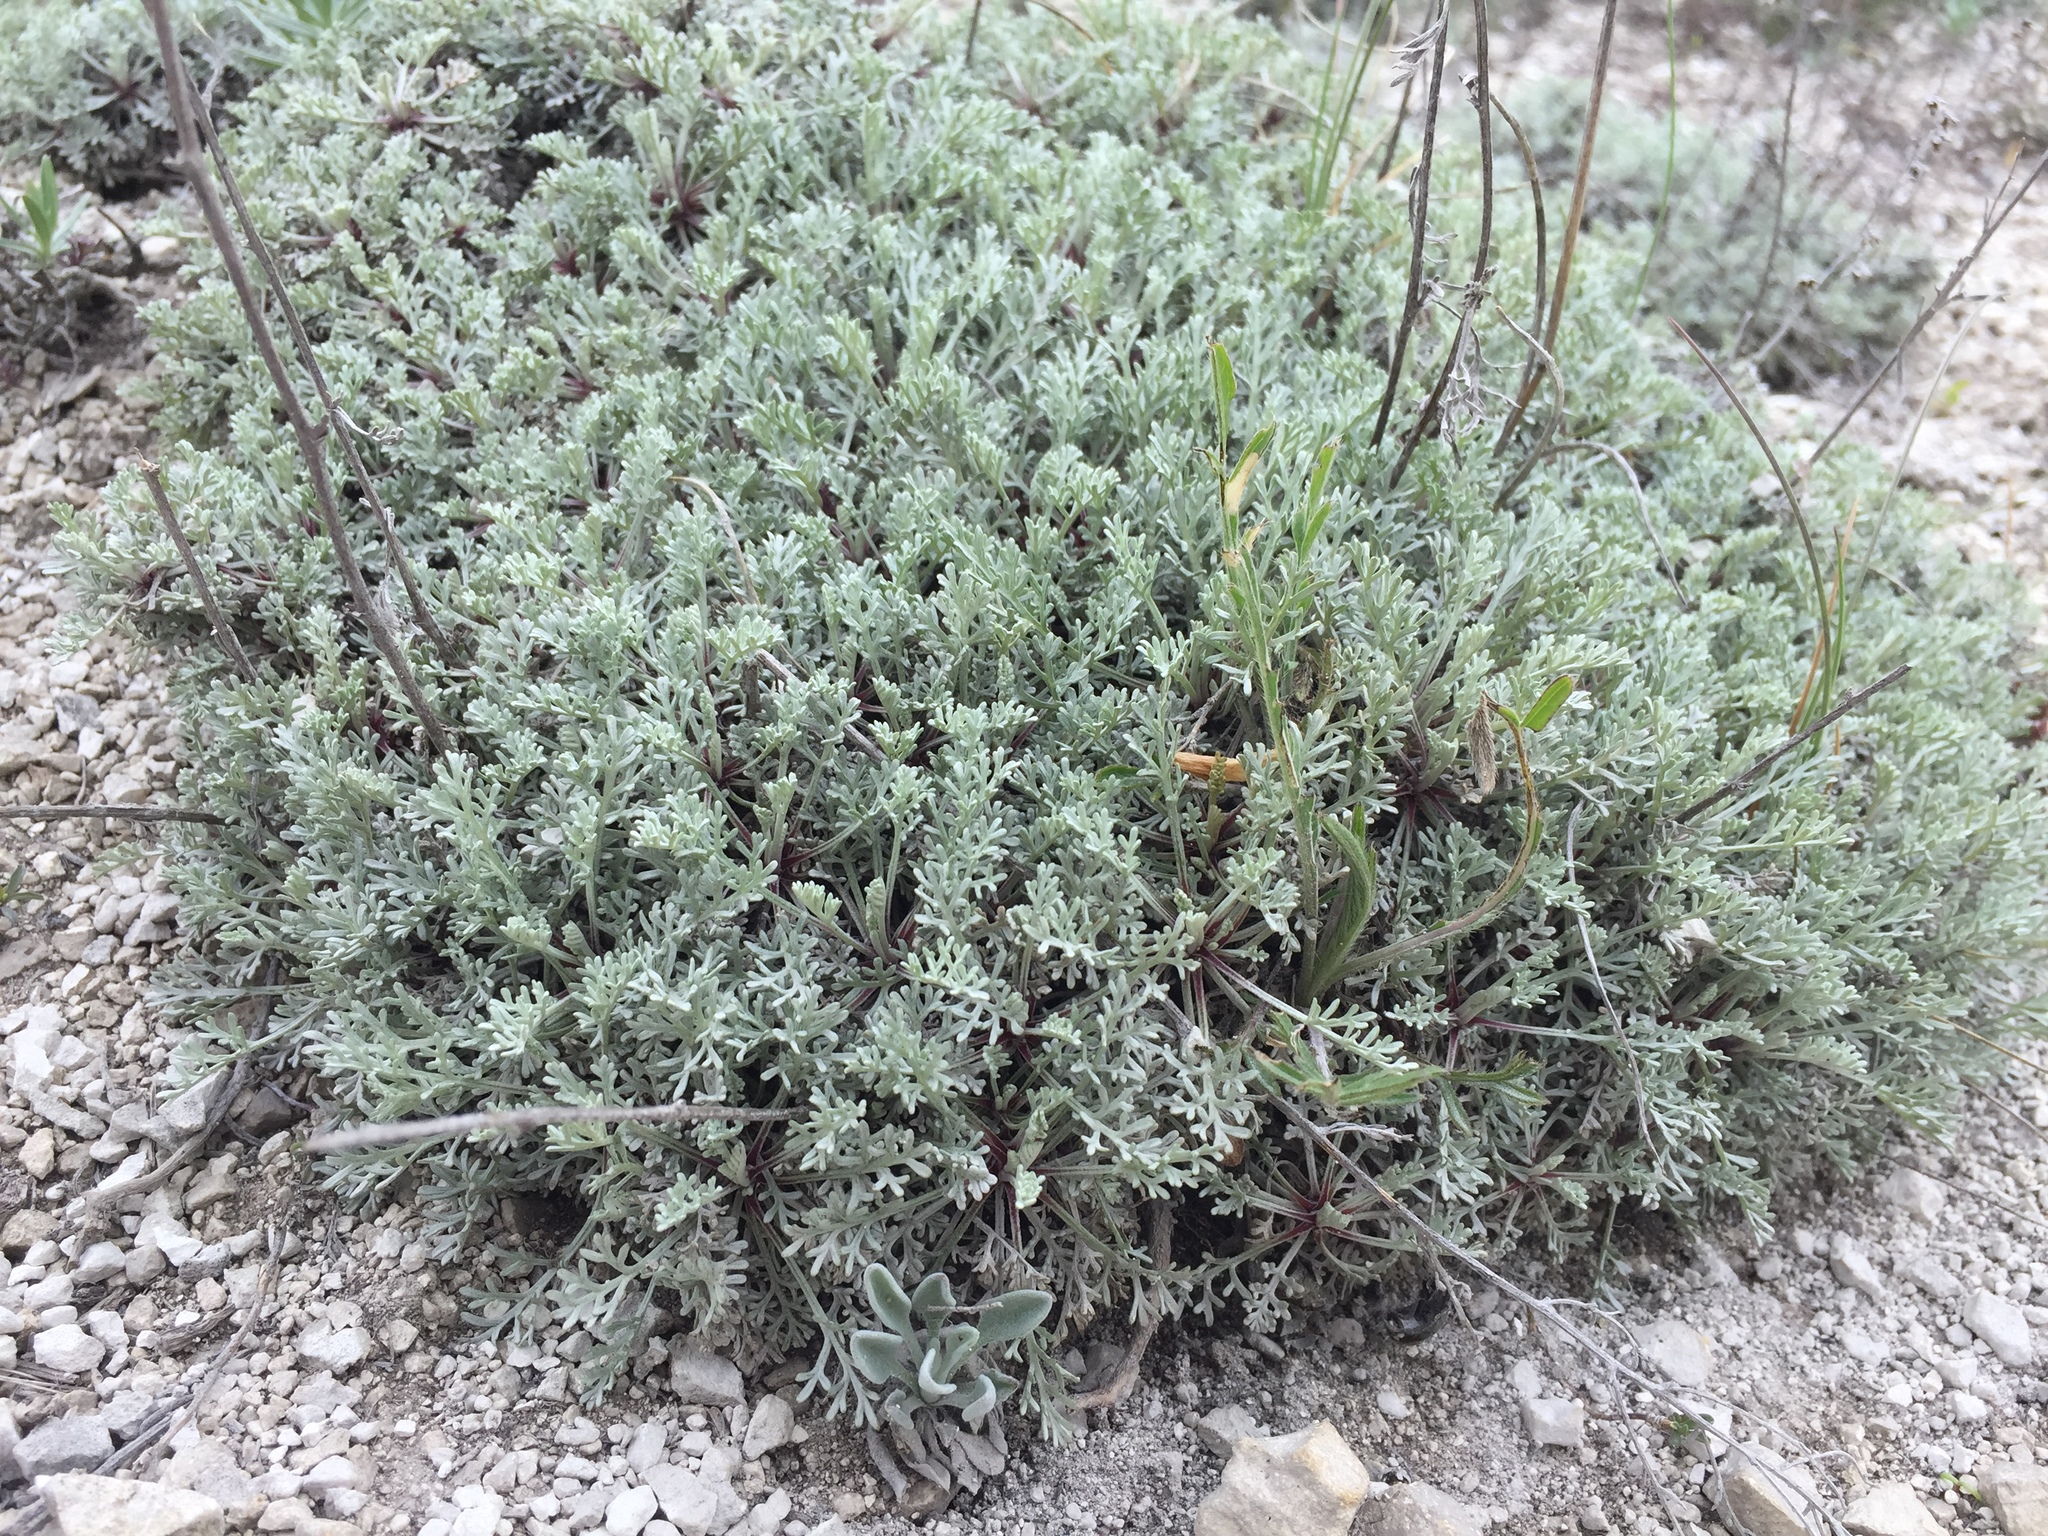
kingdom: Plantae
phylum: Tracheophyta
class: Magnoliopsida
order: Asterales
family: Asteraceae
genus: Artemisia
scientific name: Artemisia hololeuca
